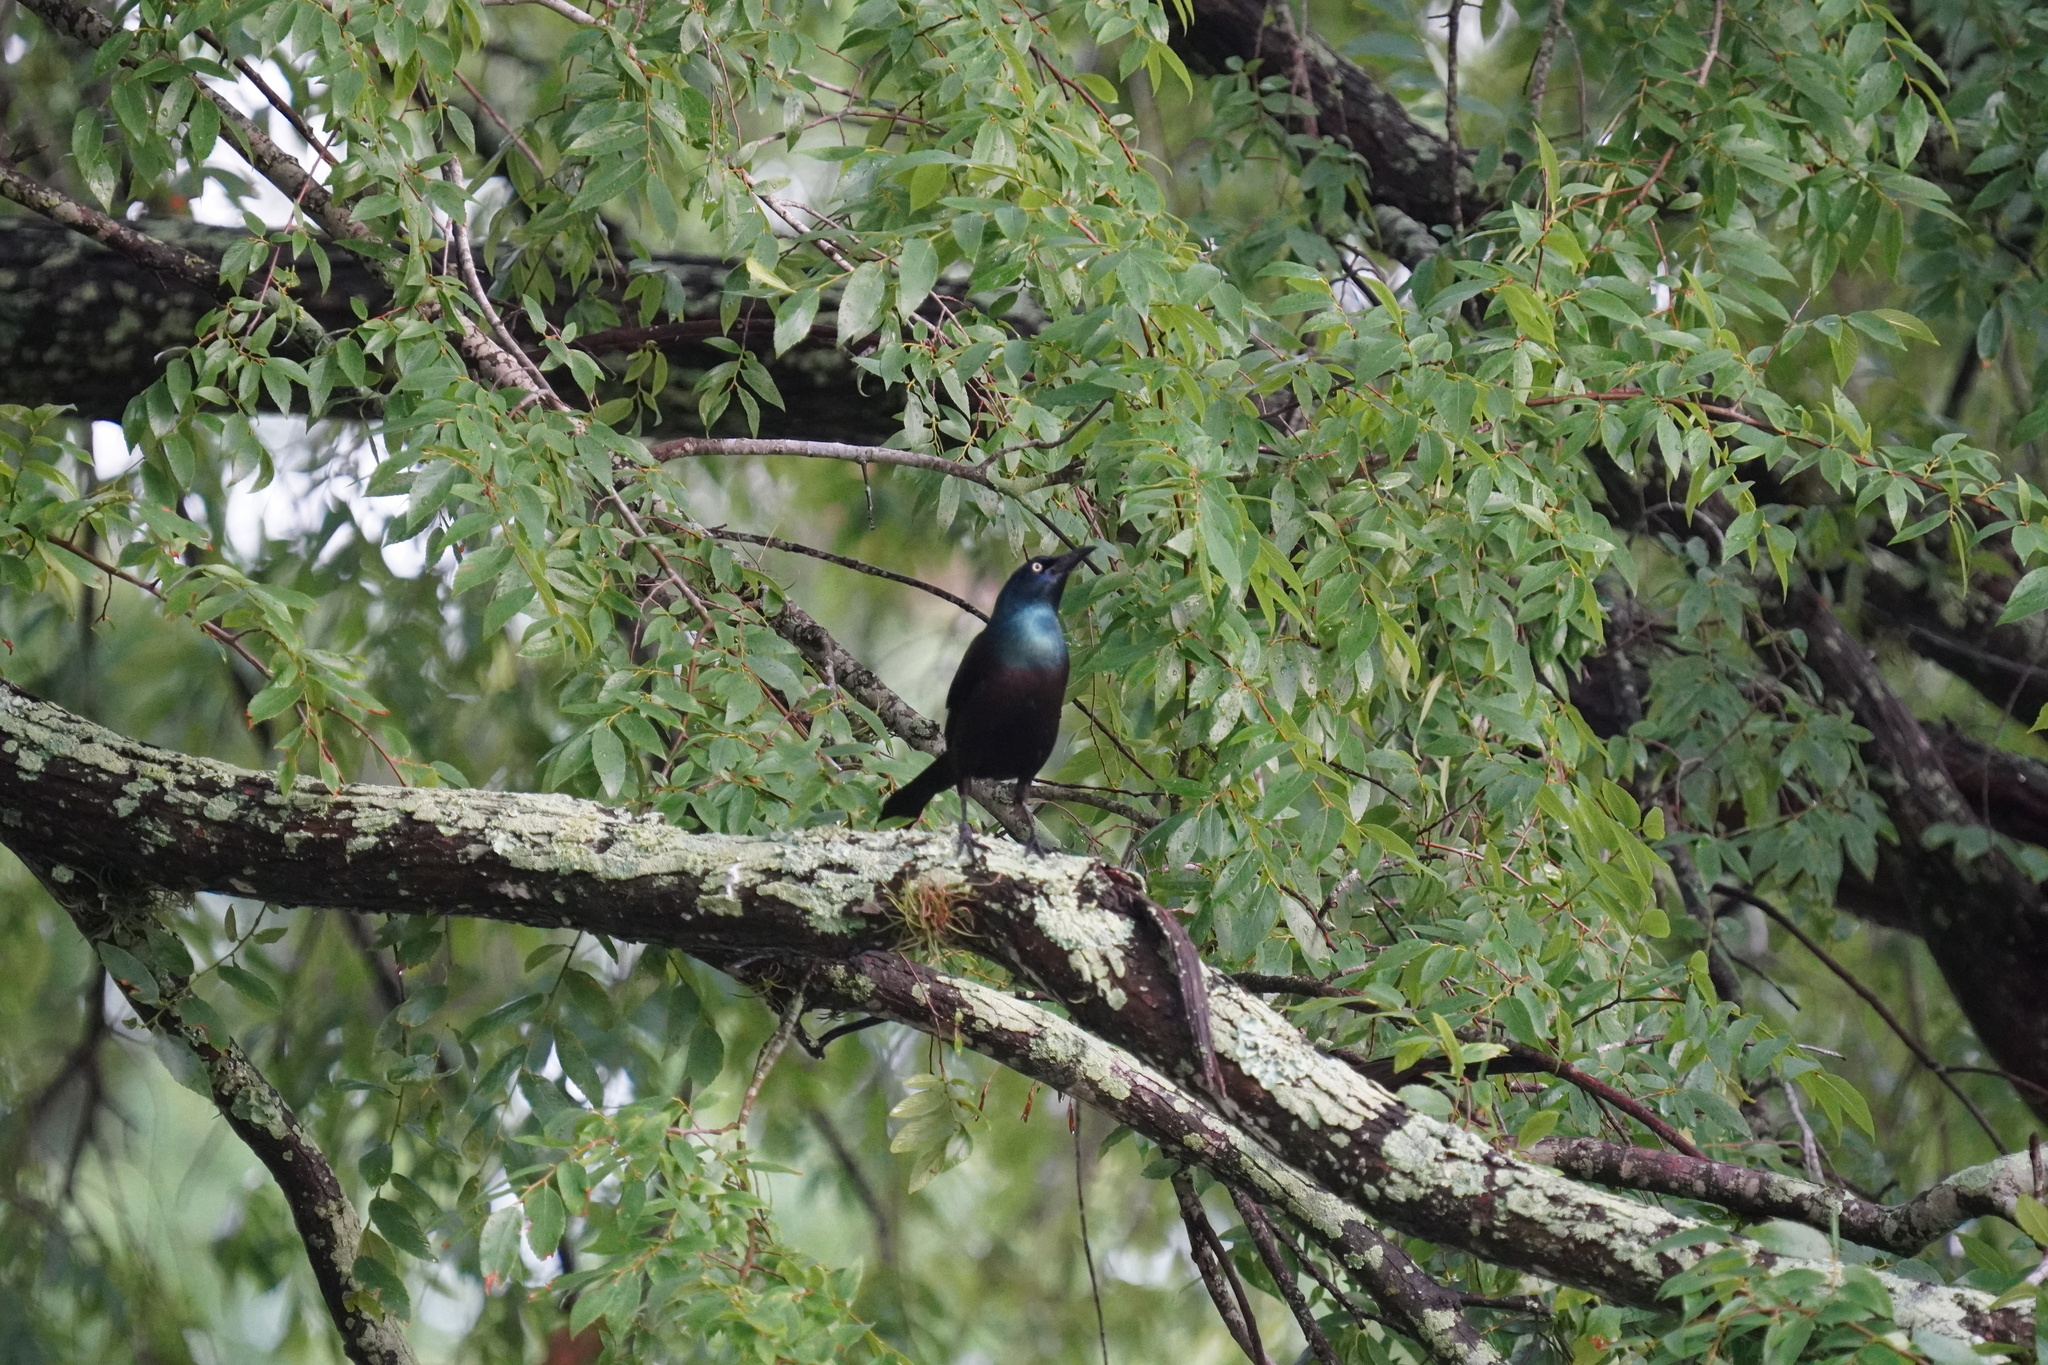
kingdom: Animalia
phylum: Chordata
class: Aves
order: Passeriformes
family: Icteridae
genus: Quiscalus
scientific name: Quiscalus quiscula
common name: Common grackle
